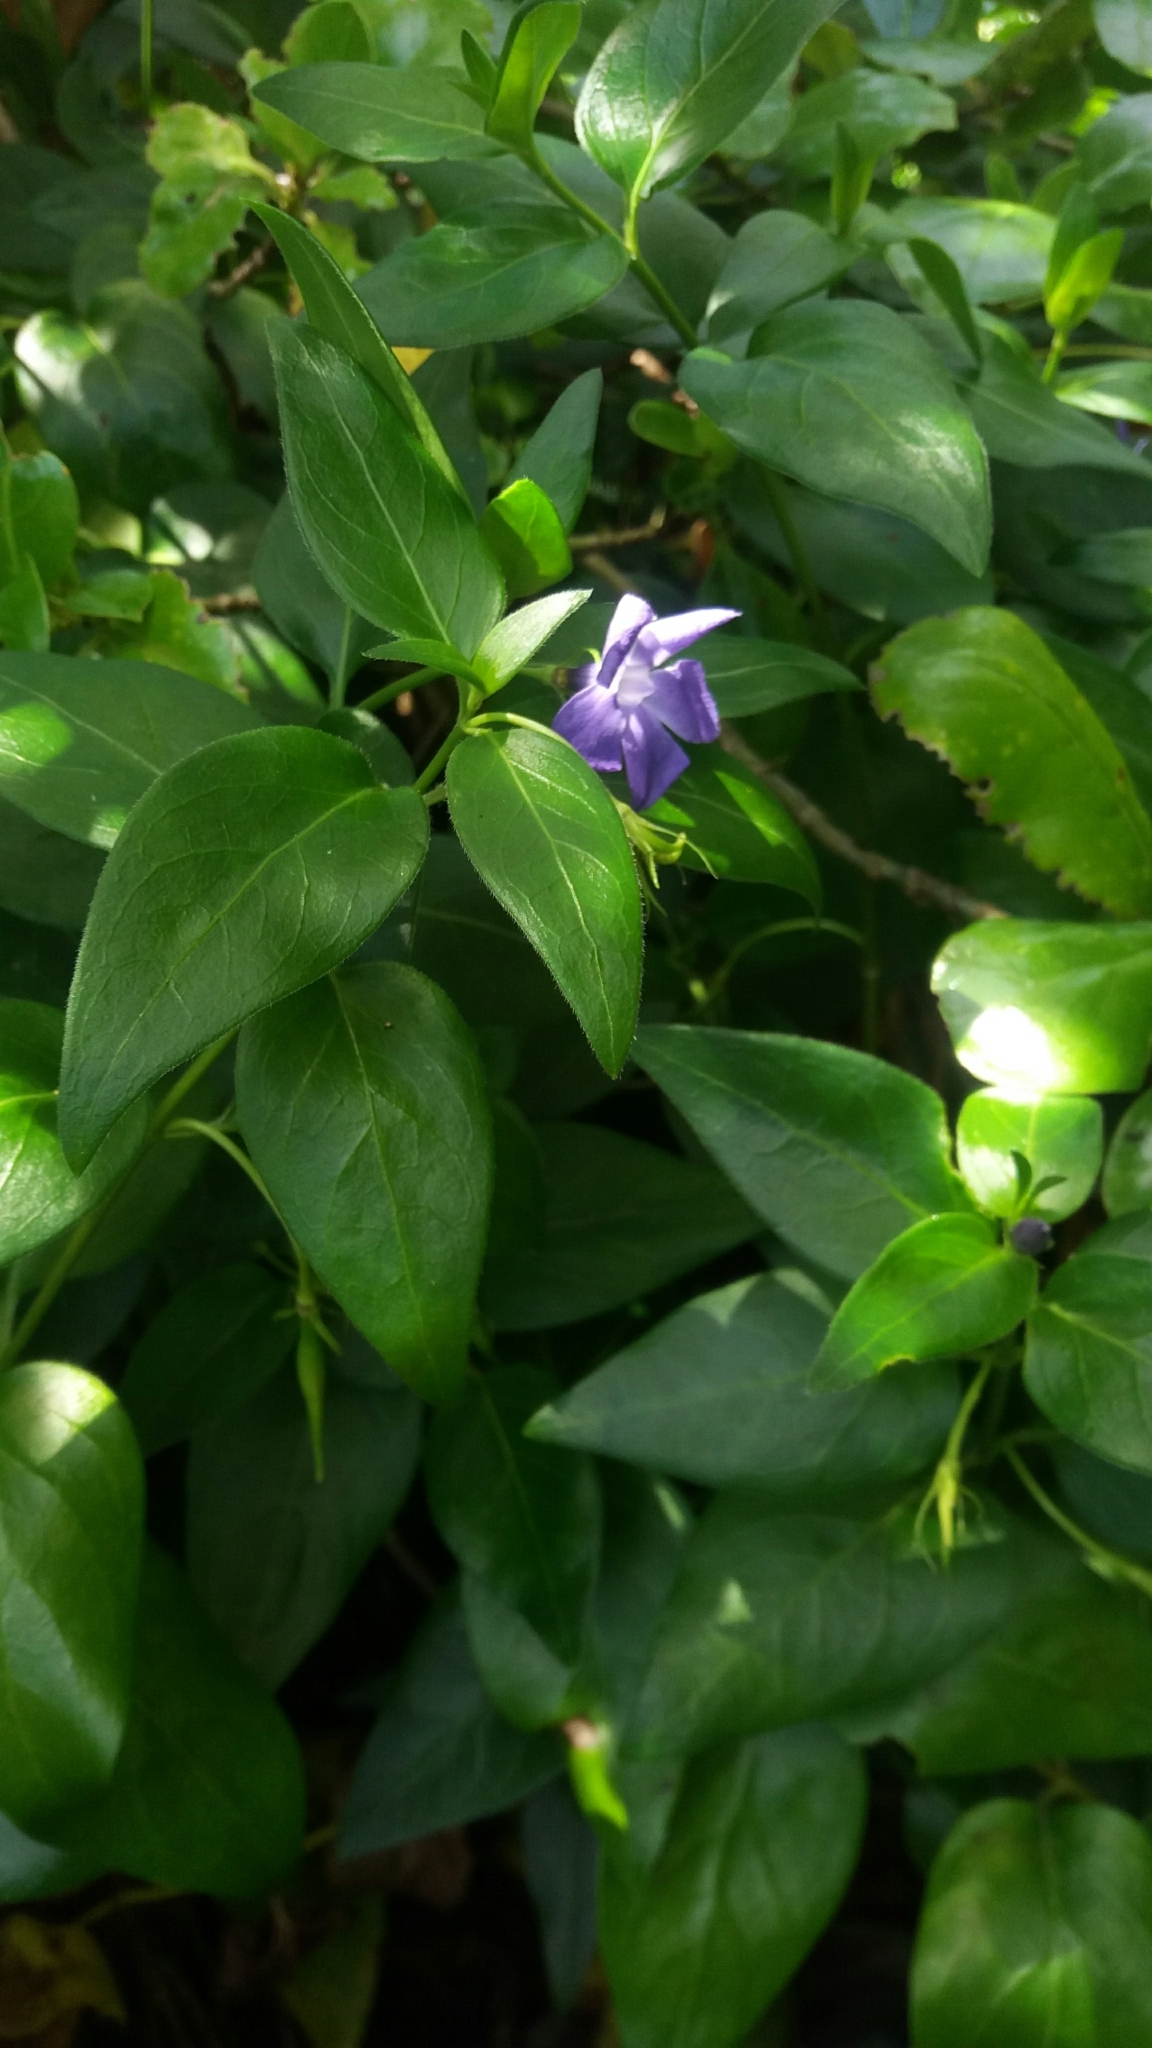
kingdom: Plantae
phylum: Tracheophyta
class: Magnoliopsida
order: Gentianales
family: Apocynaceae
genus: Vinca
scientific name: Vinca major
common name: Greater periwinkle
